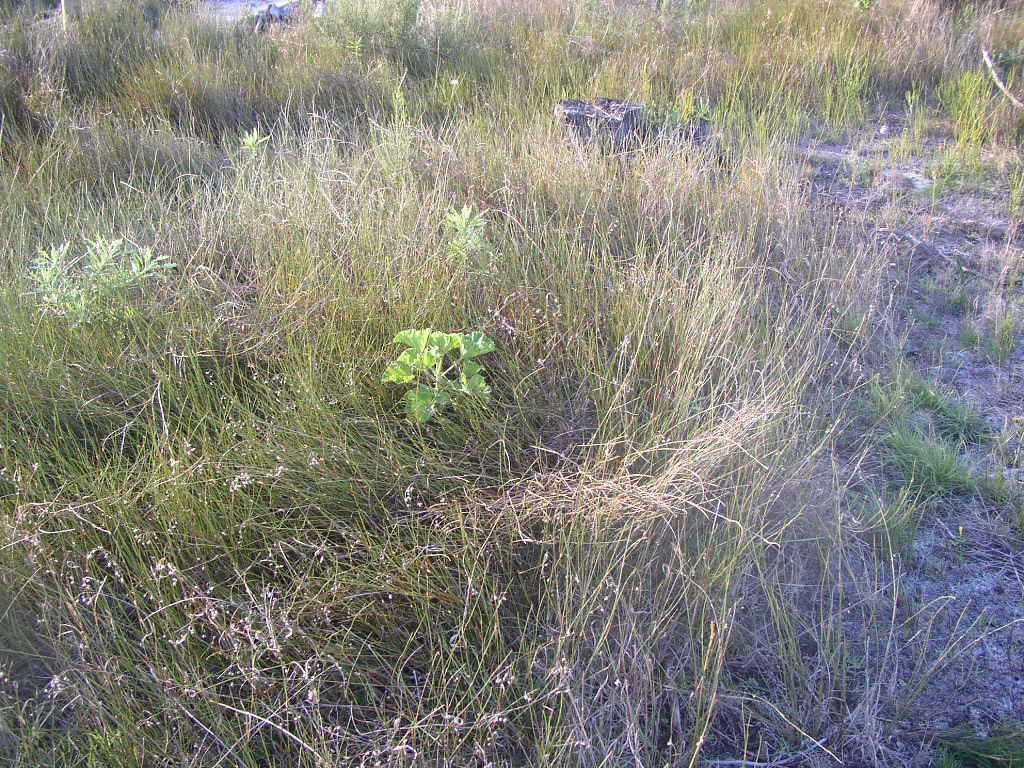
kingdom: Plantae
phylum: Tracheophyta
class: Liliopsida
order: Poales
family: Restionaceae
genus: Restio
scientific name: Restio bifurcus
